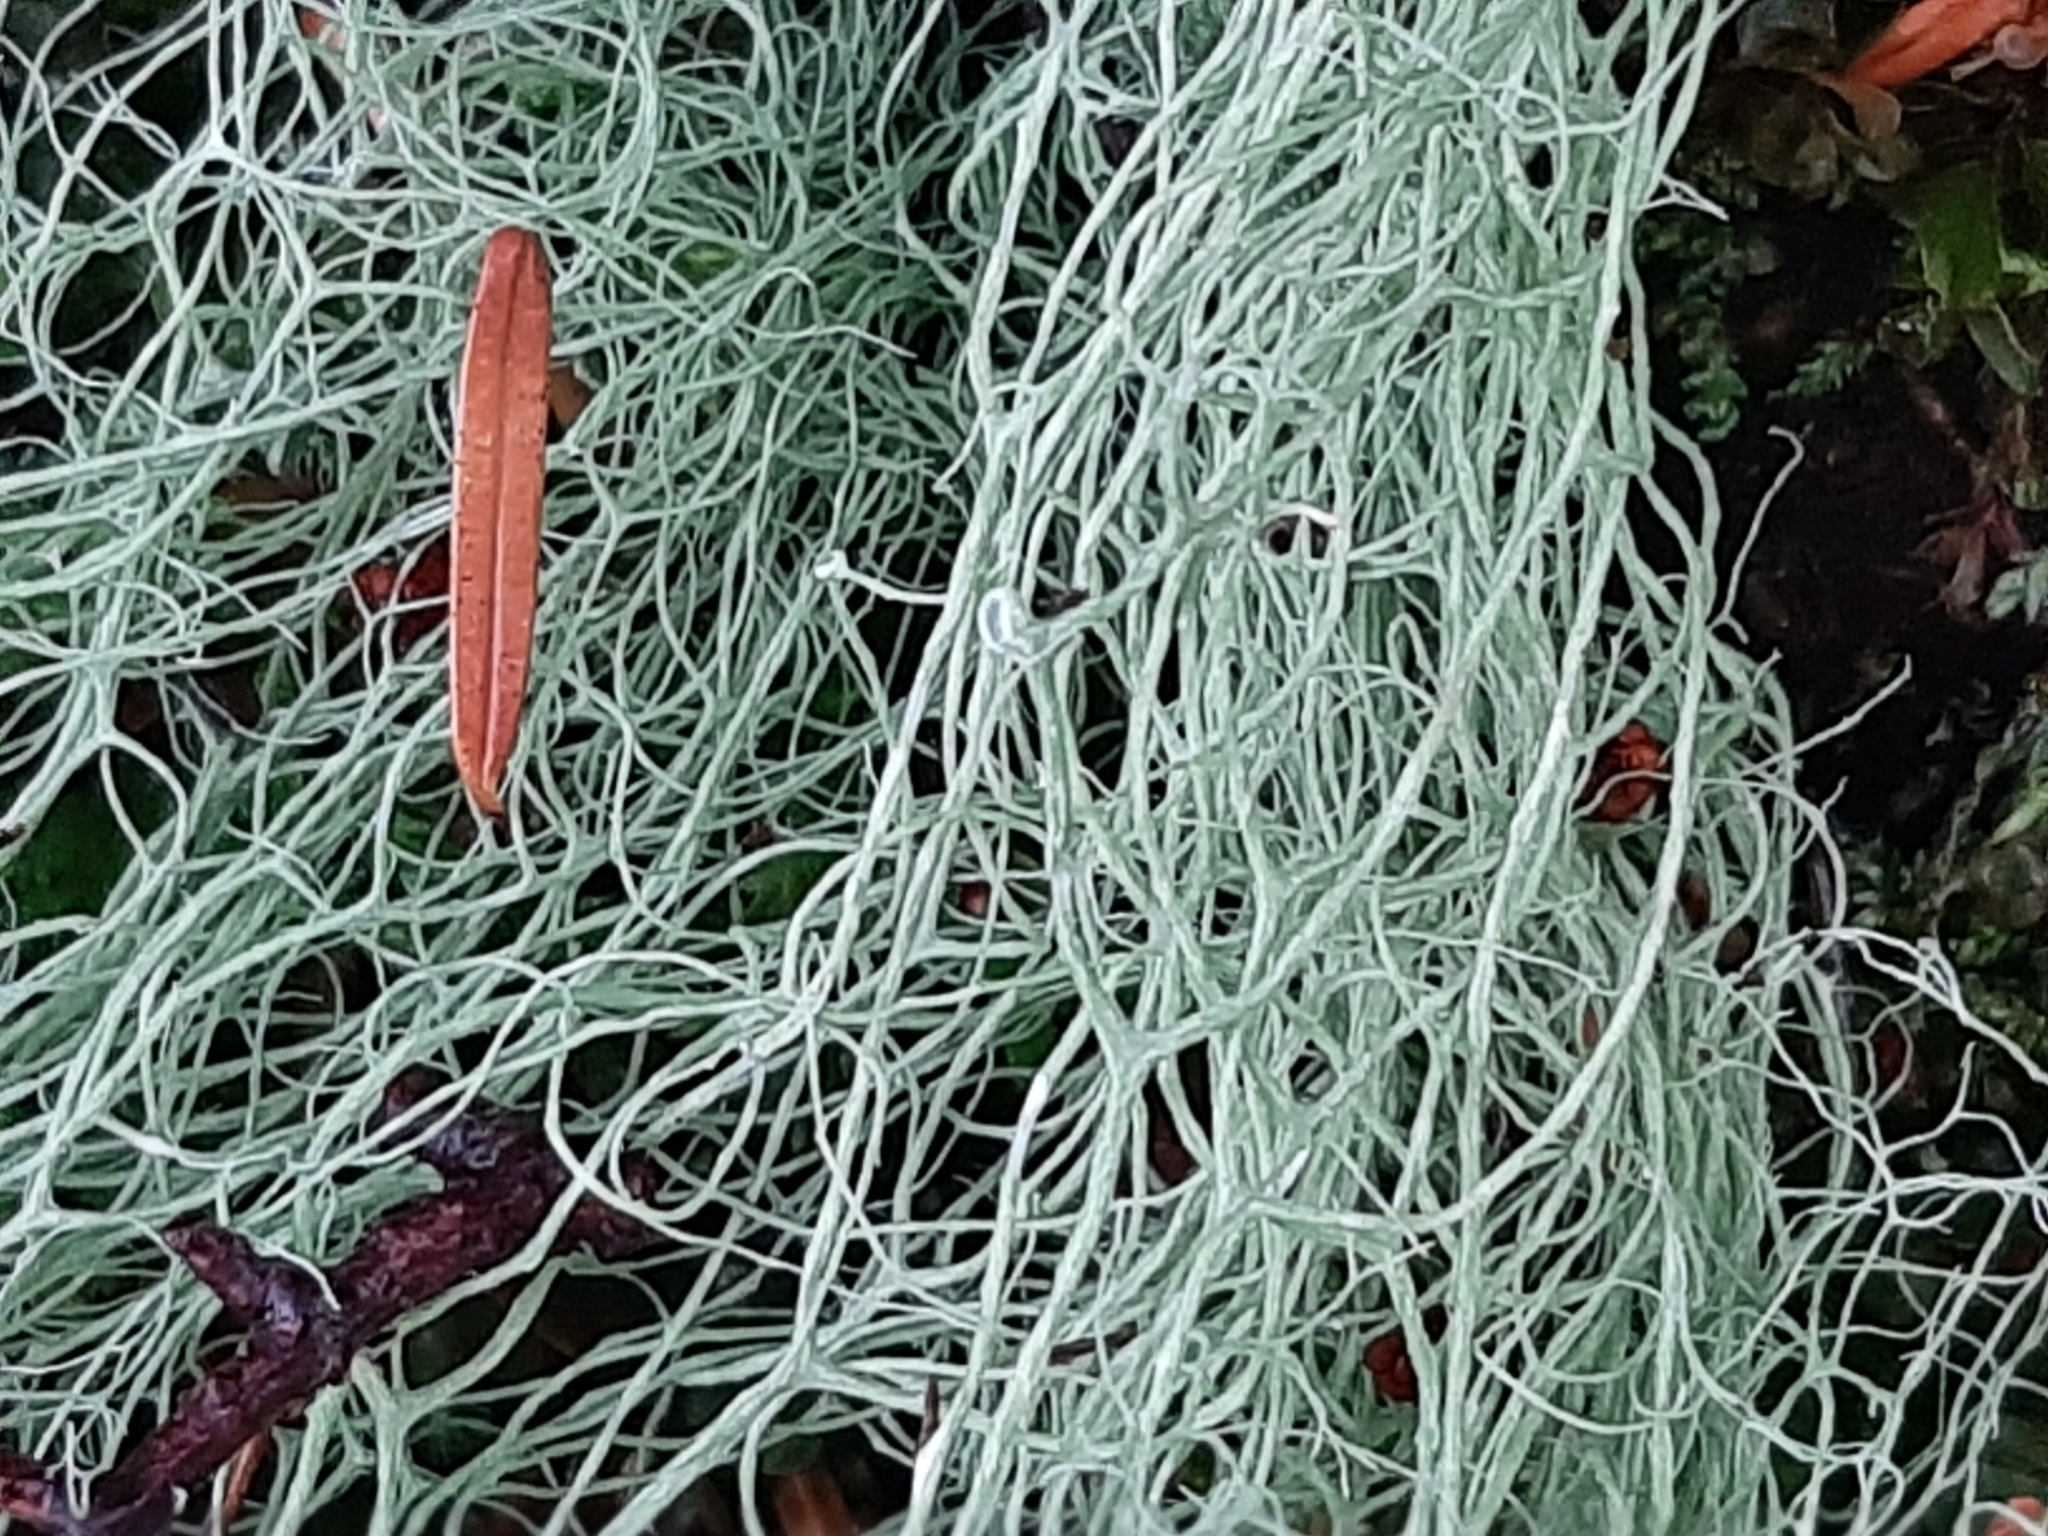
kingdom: Fungi
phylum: Ascomycota
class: Lecanoromycetes
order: Lecanorales
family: Parmeliaceae
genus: Alectoria
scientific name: Alectoria sarmentosa
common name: Witch's hair
